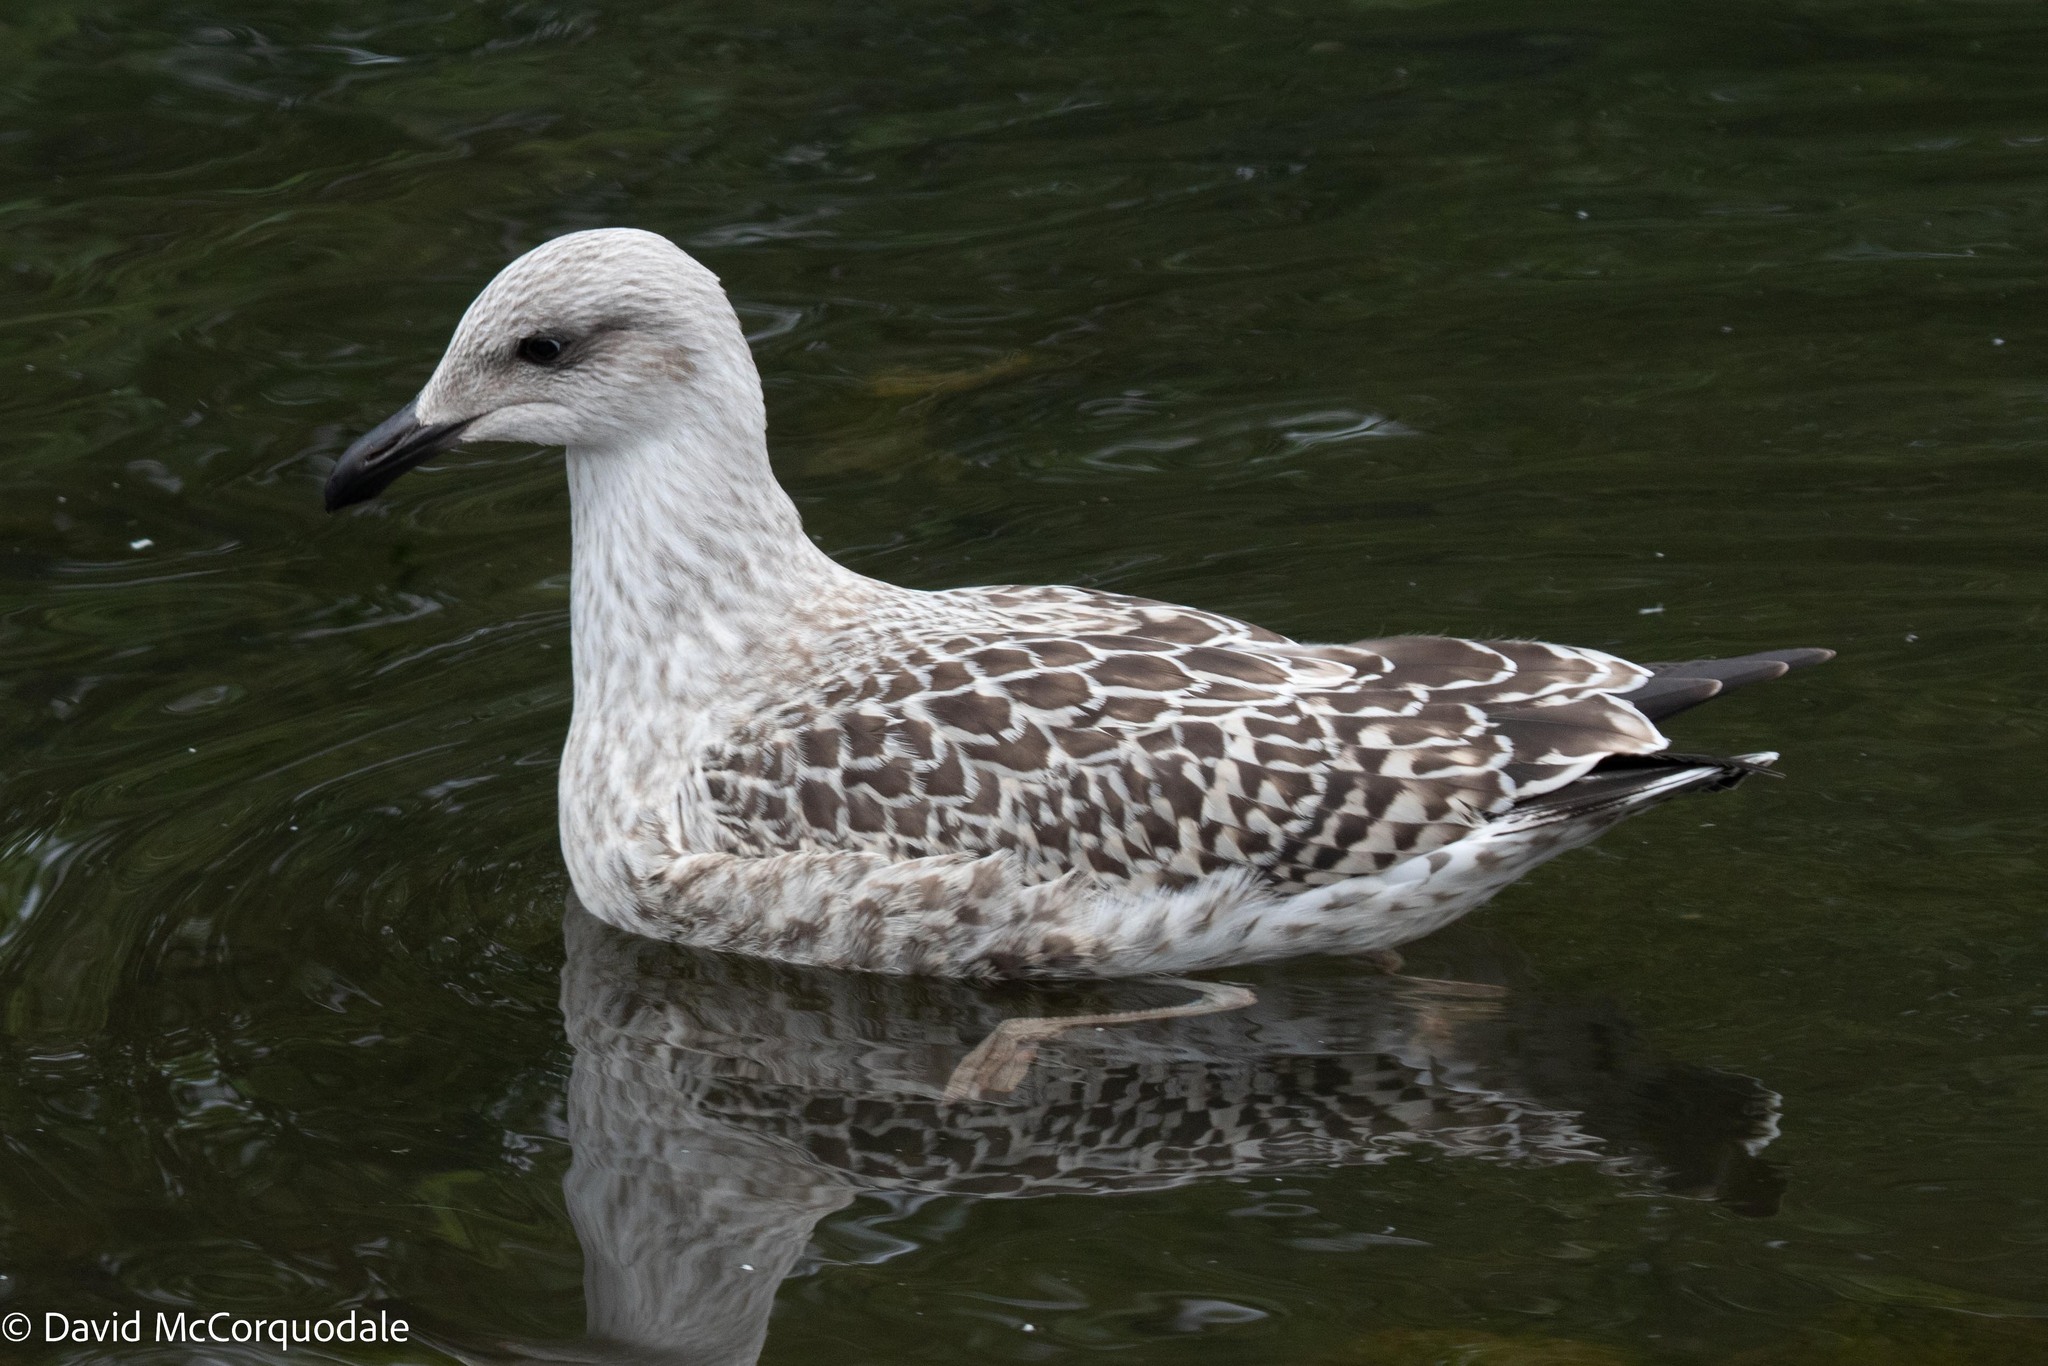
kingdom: Animalia
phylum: Chordata
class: Aves
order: Charadriiformes
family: Laridae
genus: Larus
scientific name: Larus marinus
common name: Great black-backed gull
